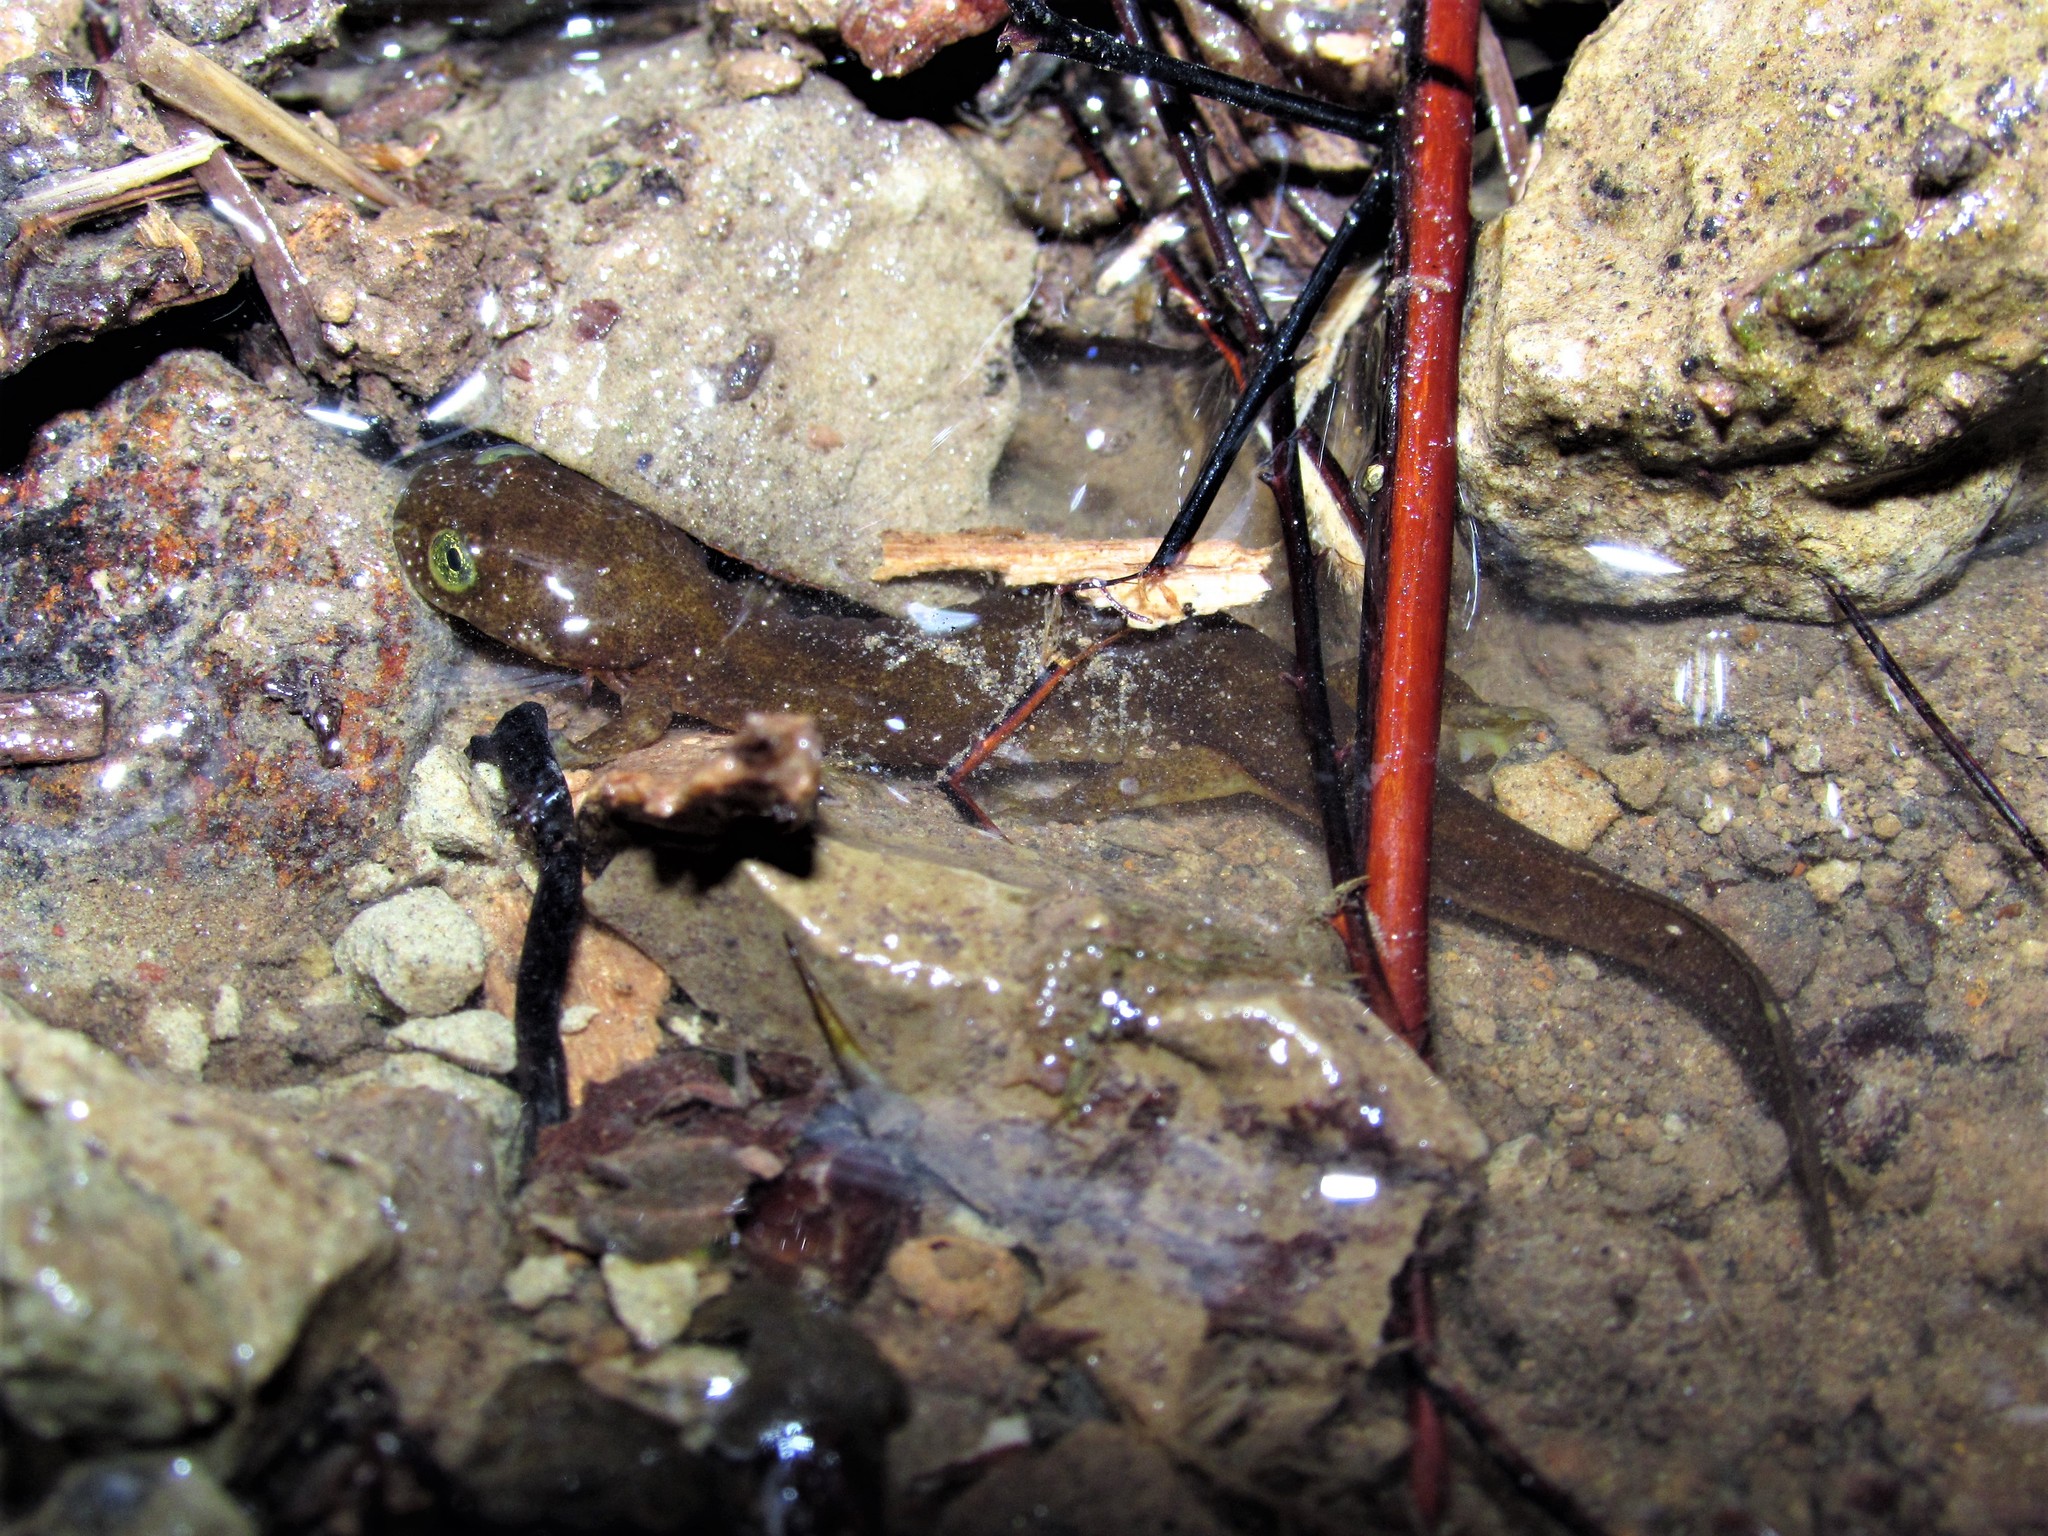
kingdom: Animalia
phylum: Chordata
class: Amphibia
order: Caudata
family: Rhyacotritonidae
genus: Rhyacotriton
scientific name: Rhyacotriton kezeri
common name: Columbia torrent salamander
